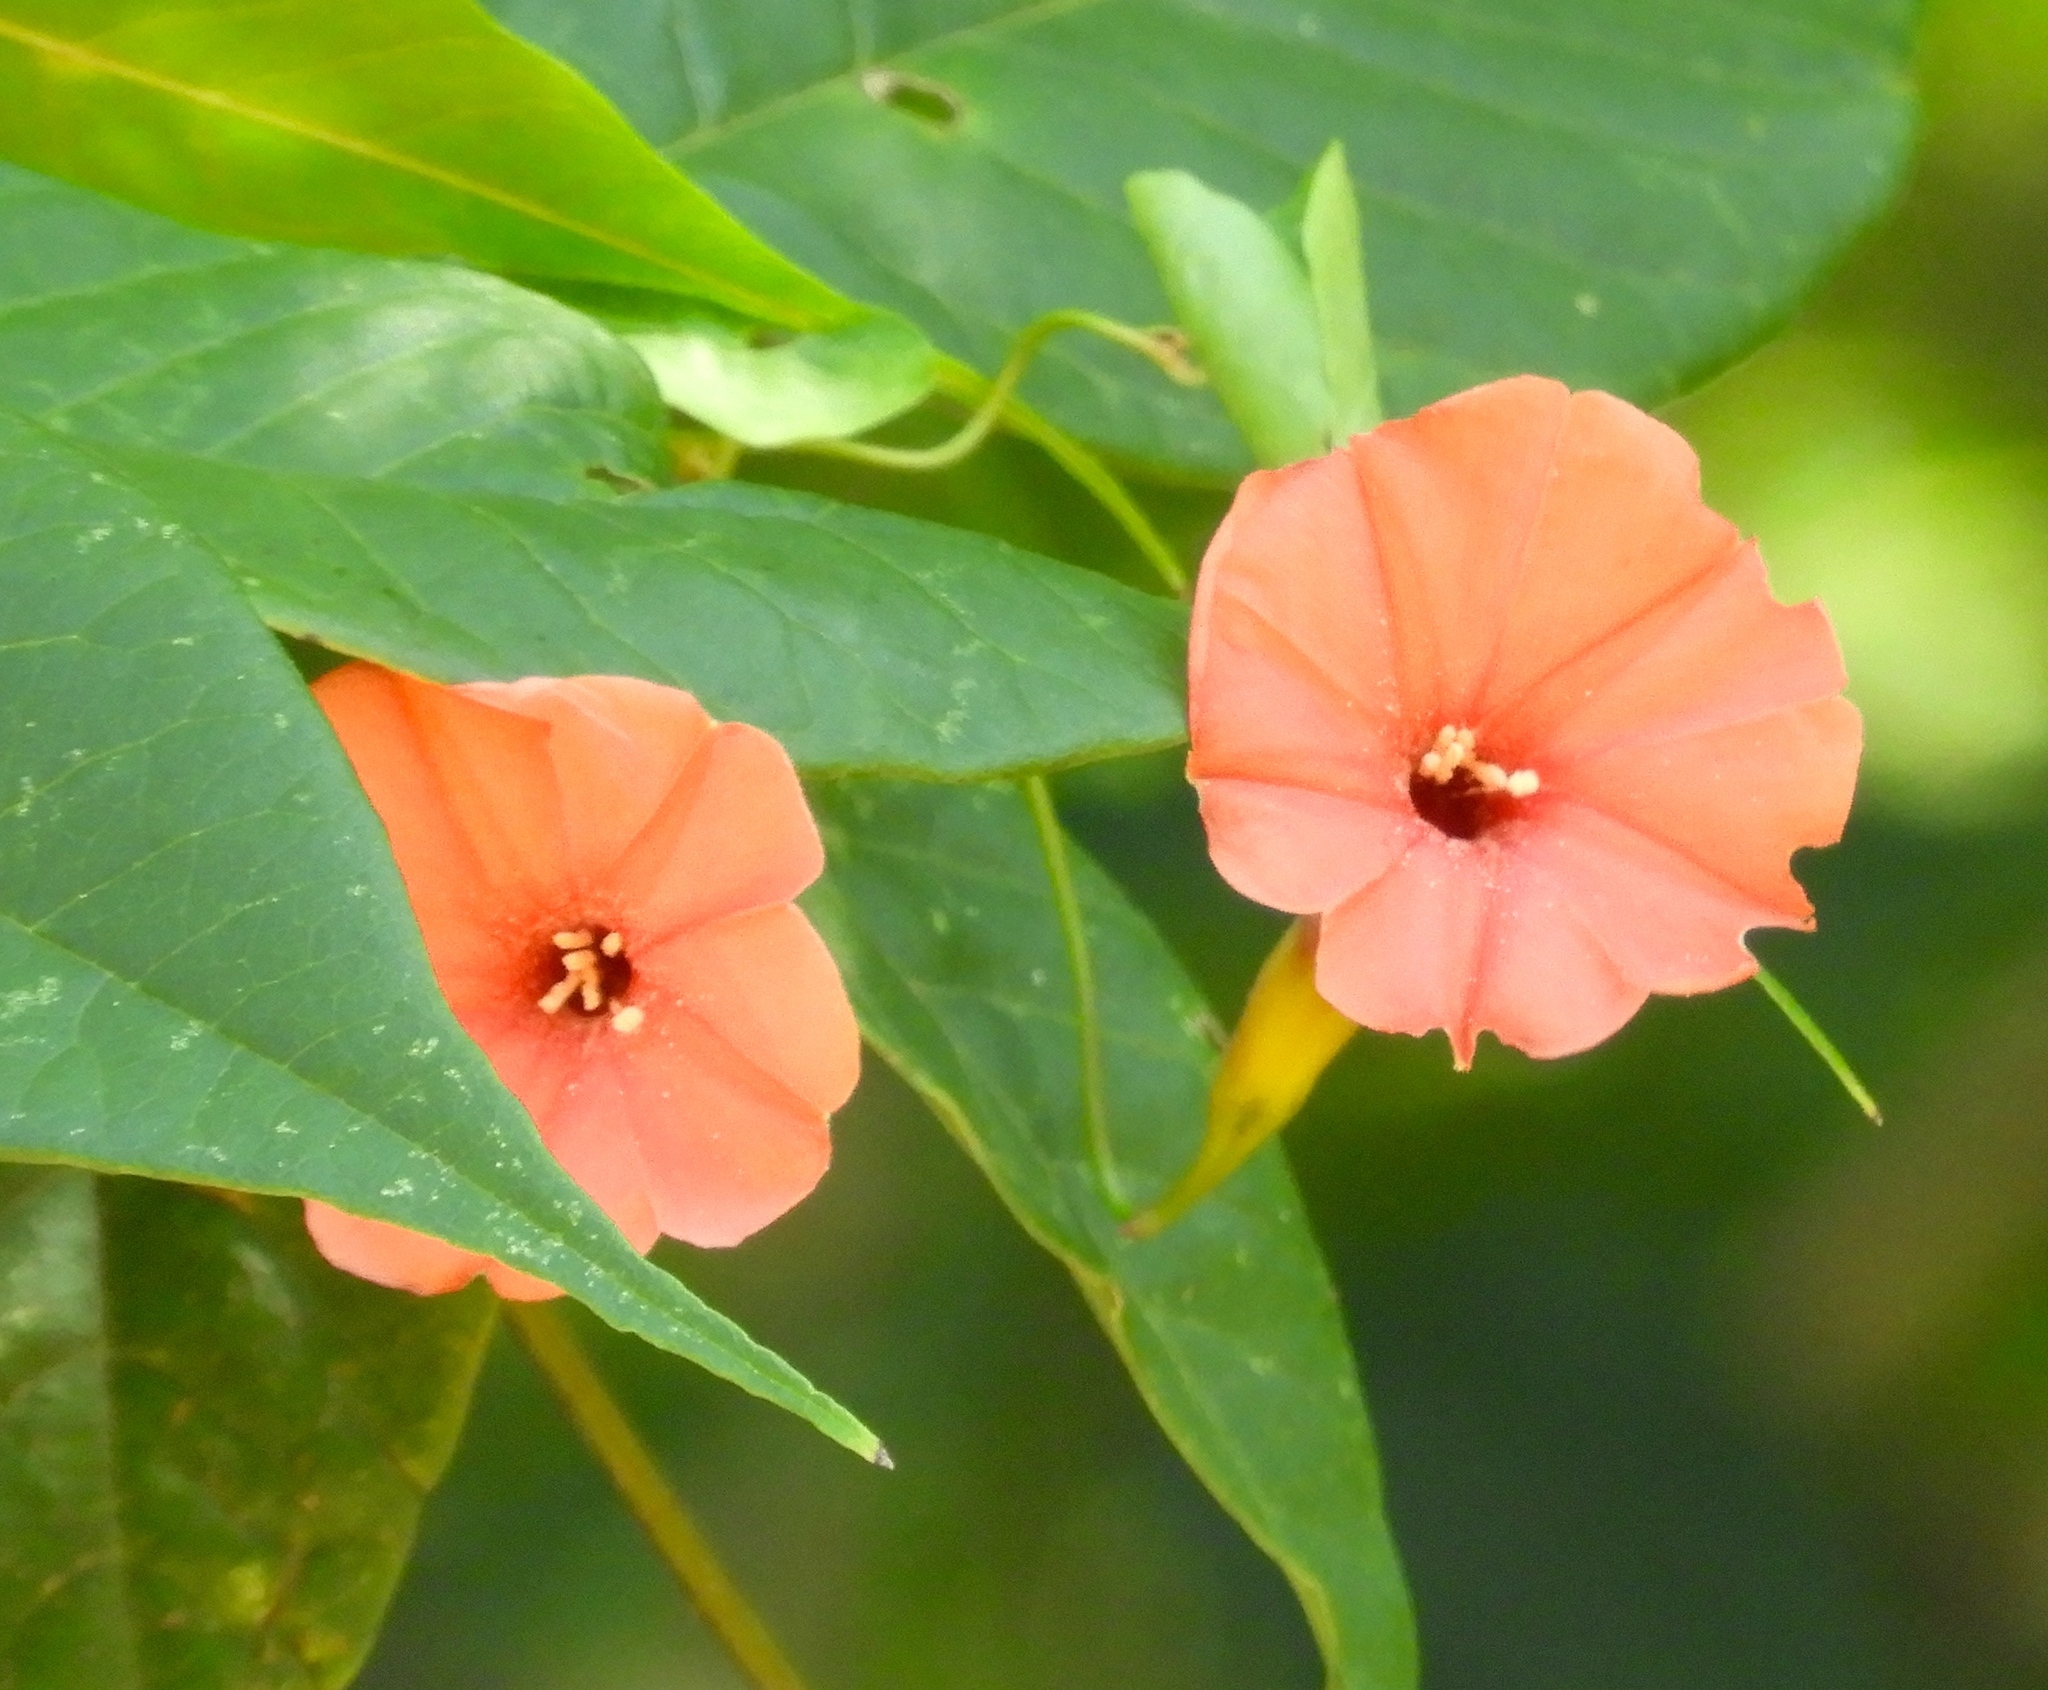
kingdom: Plantae
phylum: Tracheophyta
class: Magnoliopsida
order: Solanales
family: Convolvulaceae
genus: Operculina
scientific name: Operculina pteripes
